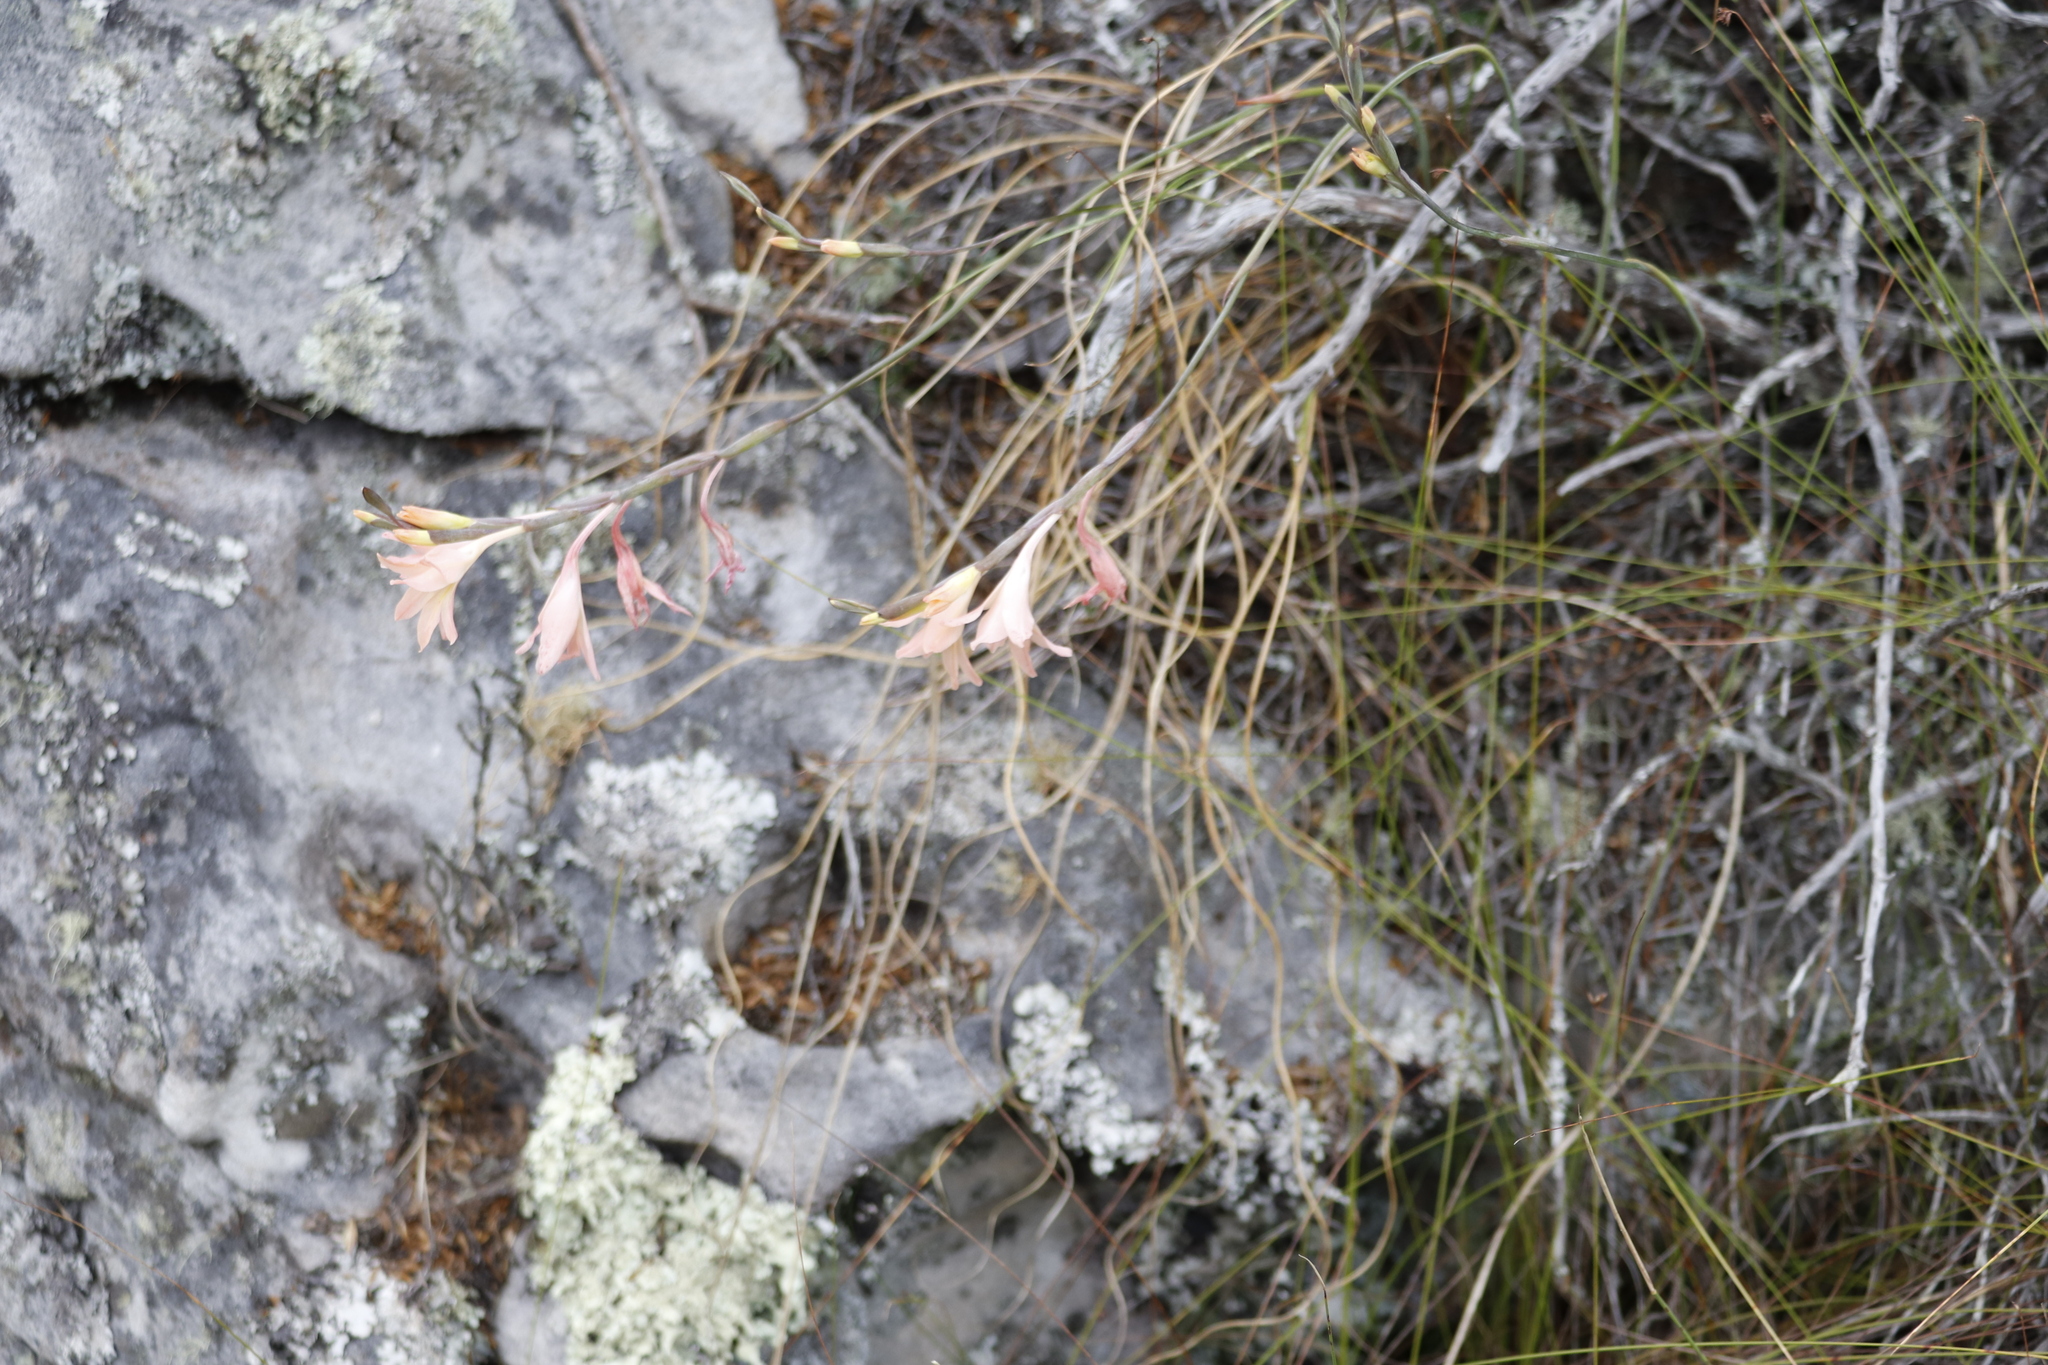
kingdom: Plantae
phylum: Tracheophyta
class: Liliopsida
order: Asparagales
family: Iridaceae
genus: Gladiolus
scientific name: Gladiolus monticola
